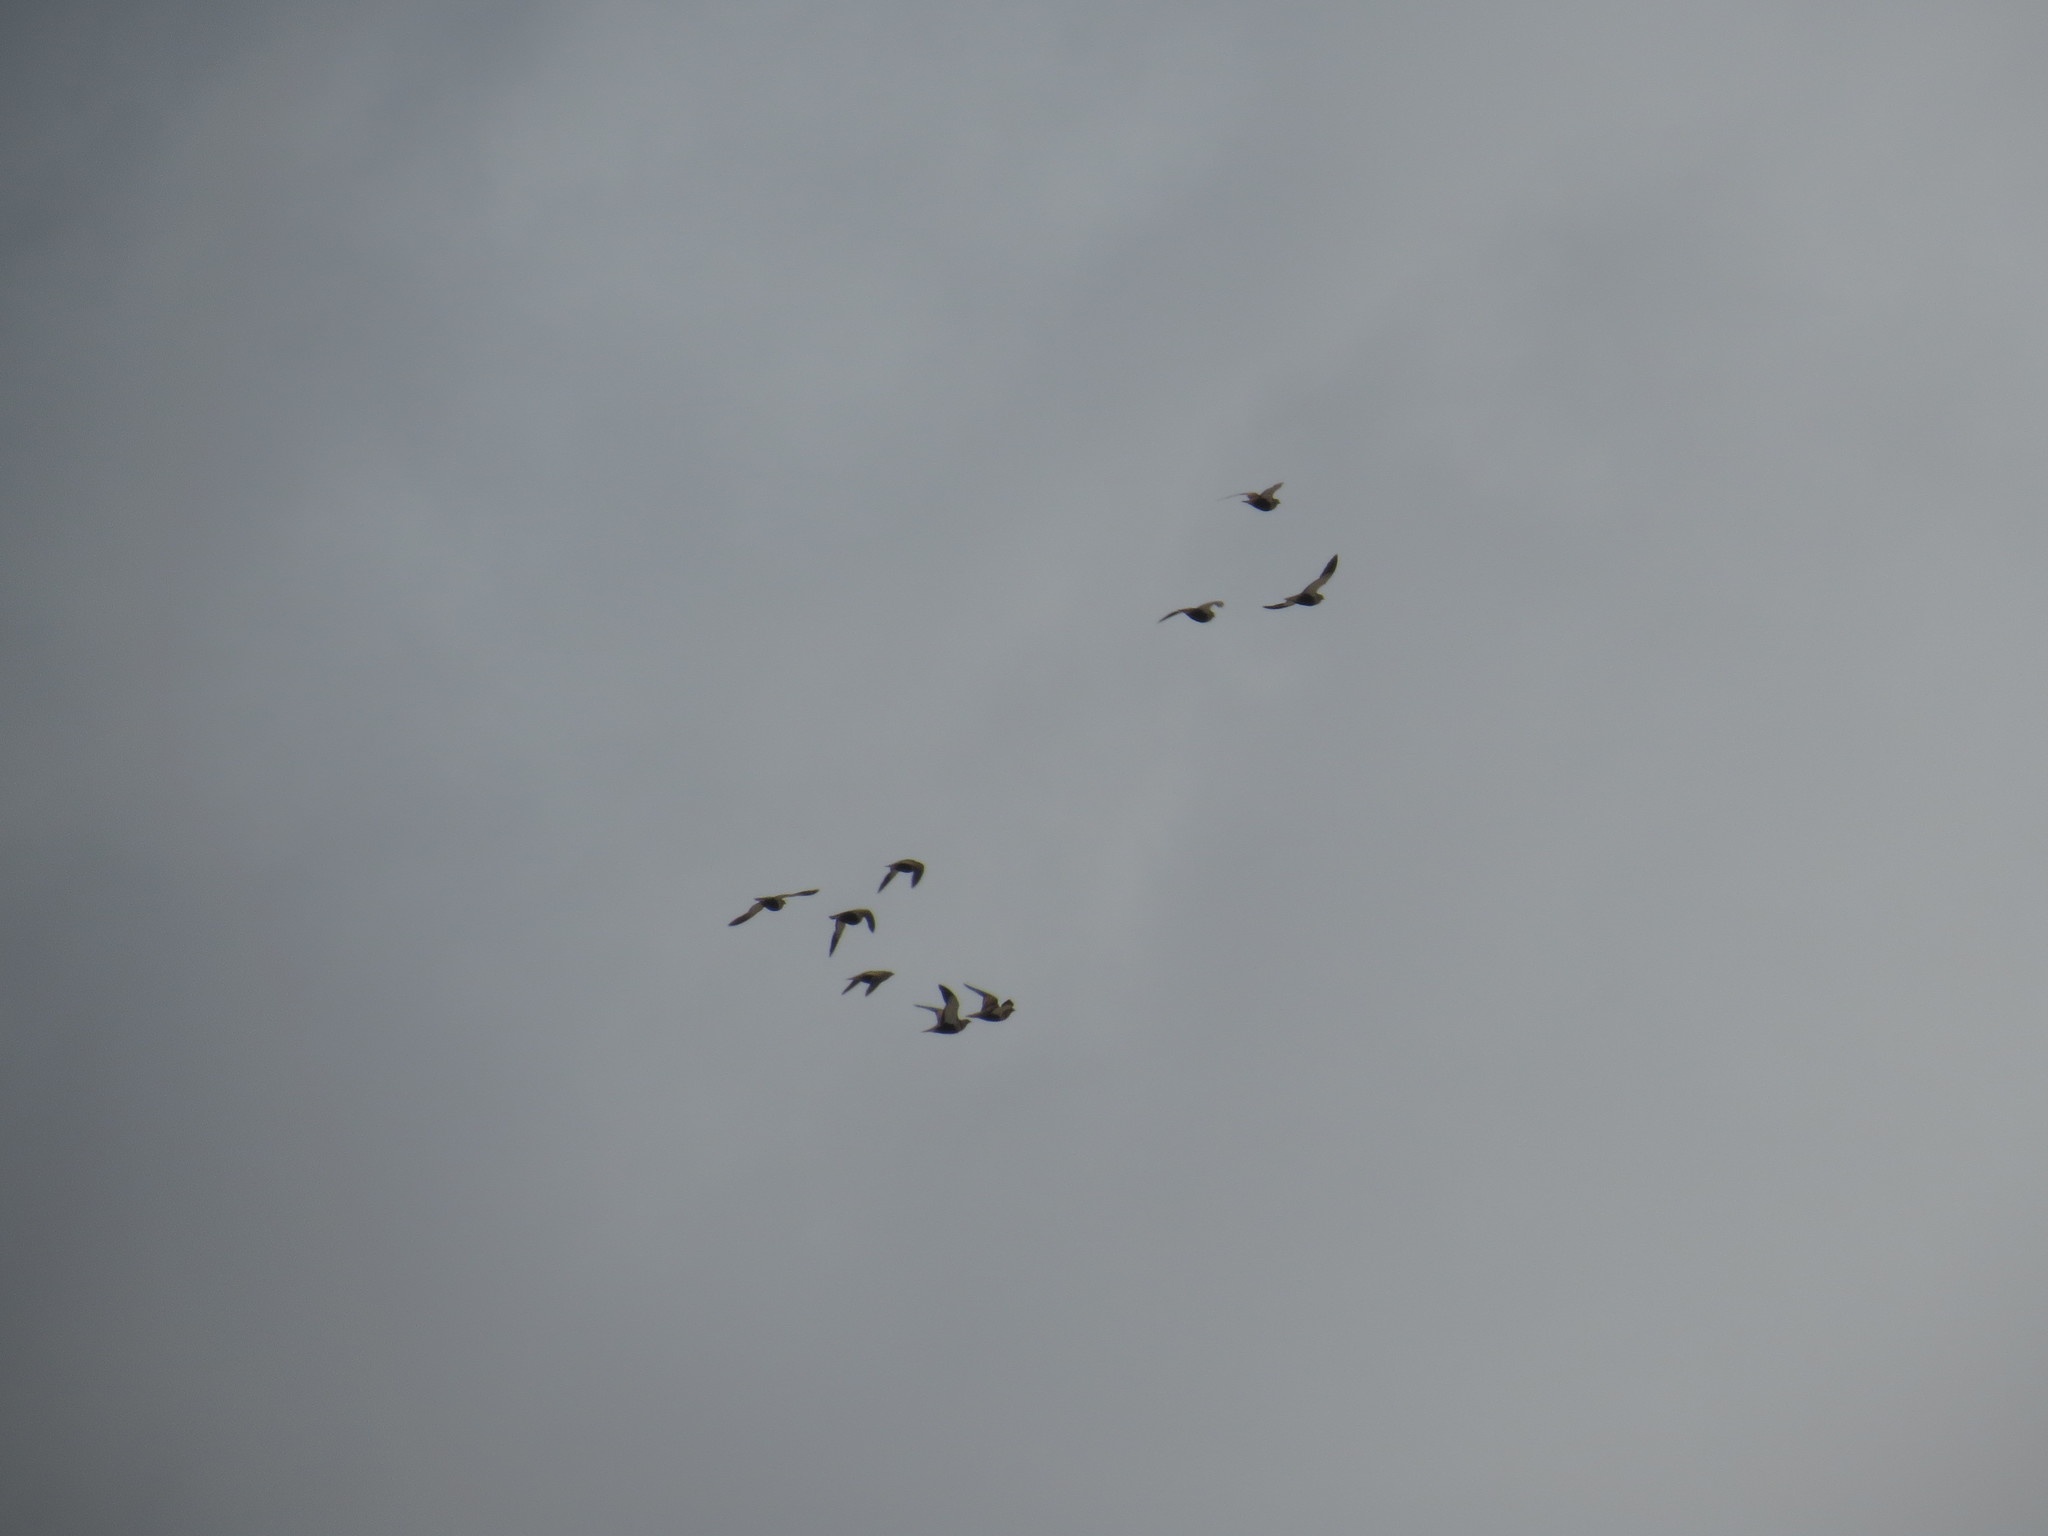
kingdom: Animalia
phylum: Chordata
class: Aves
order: Pteroclidiformes
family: Pteroclididae
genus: Pterocles
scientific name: Pterocles orientalis
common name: Black-bellied sandgrouse
